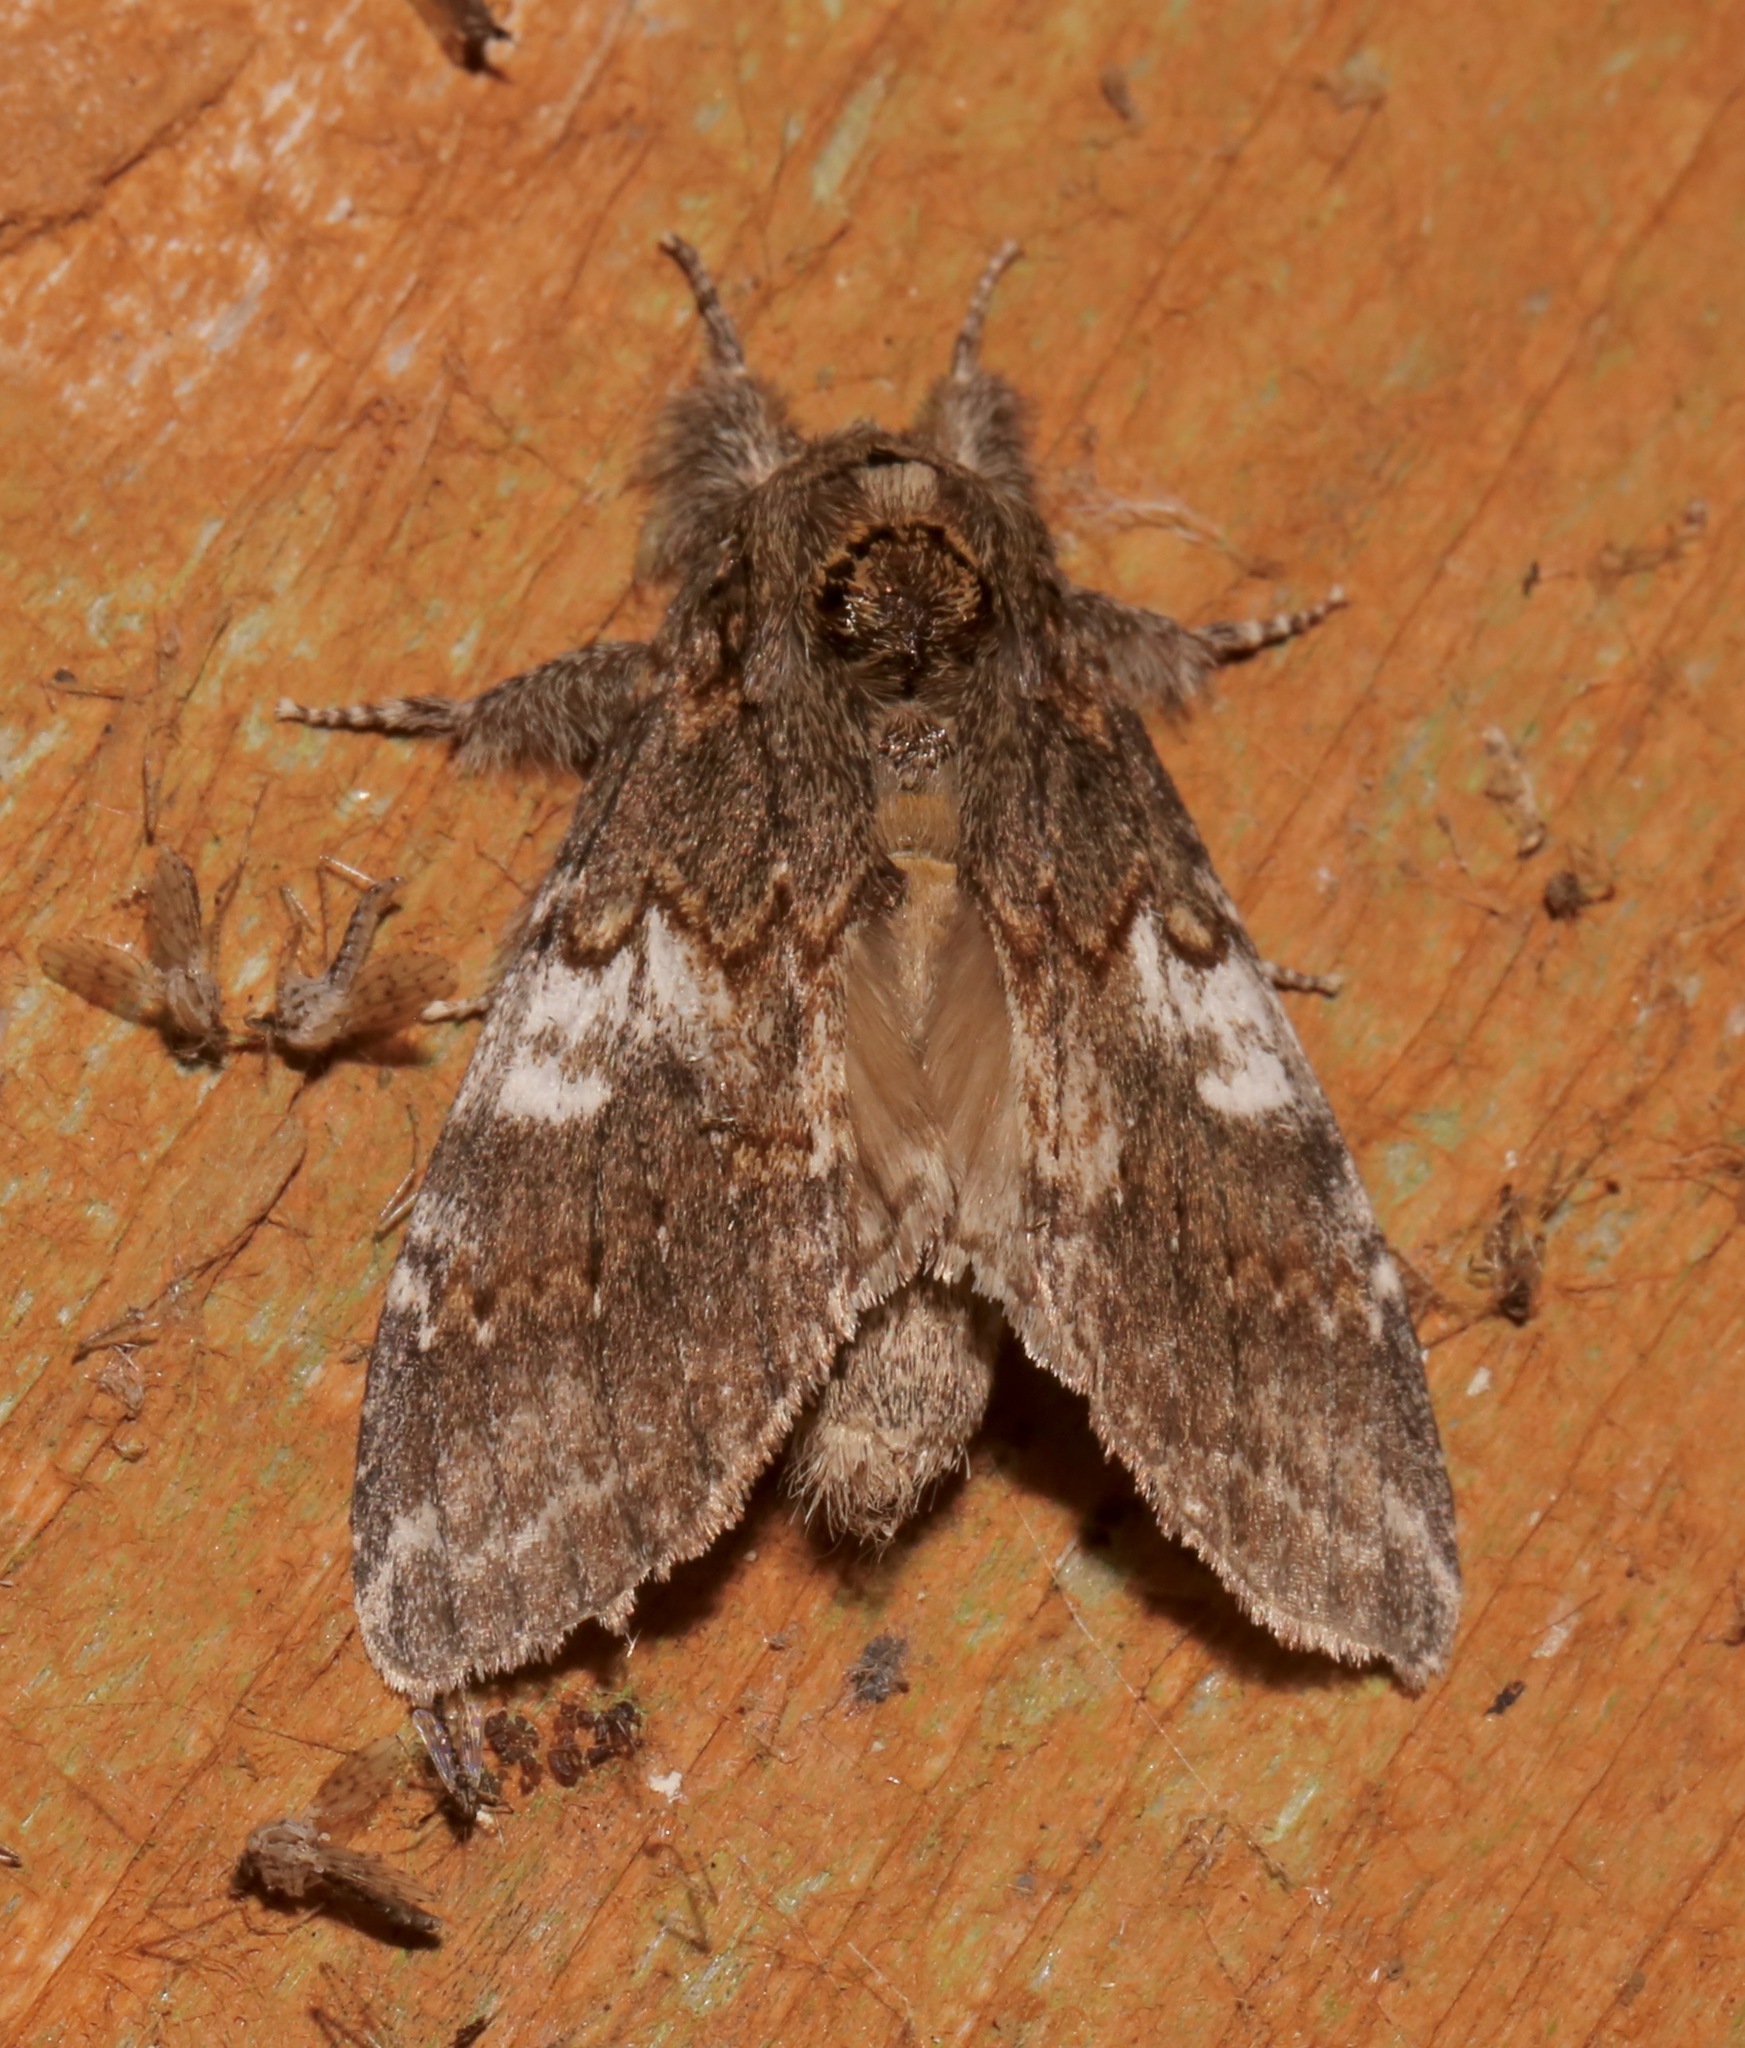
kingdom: Animalia
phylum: Arthropoda
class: Insecta
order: Lepidoptera
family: Notodontidae
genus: Peridea
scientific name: Peridea angulosa
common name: Angulose prominent
